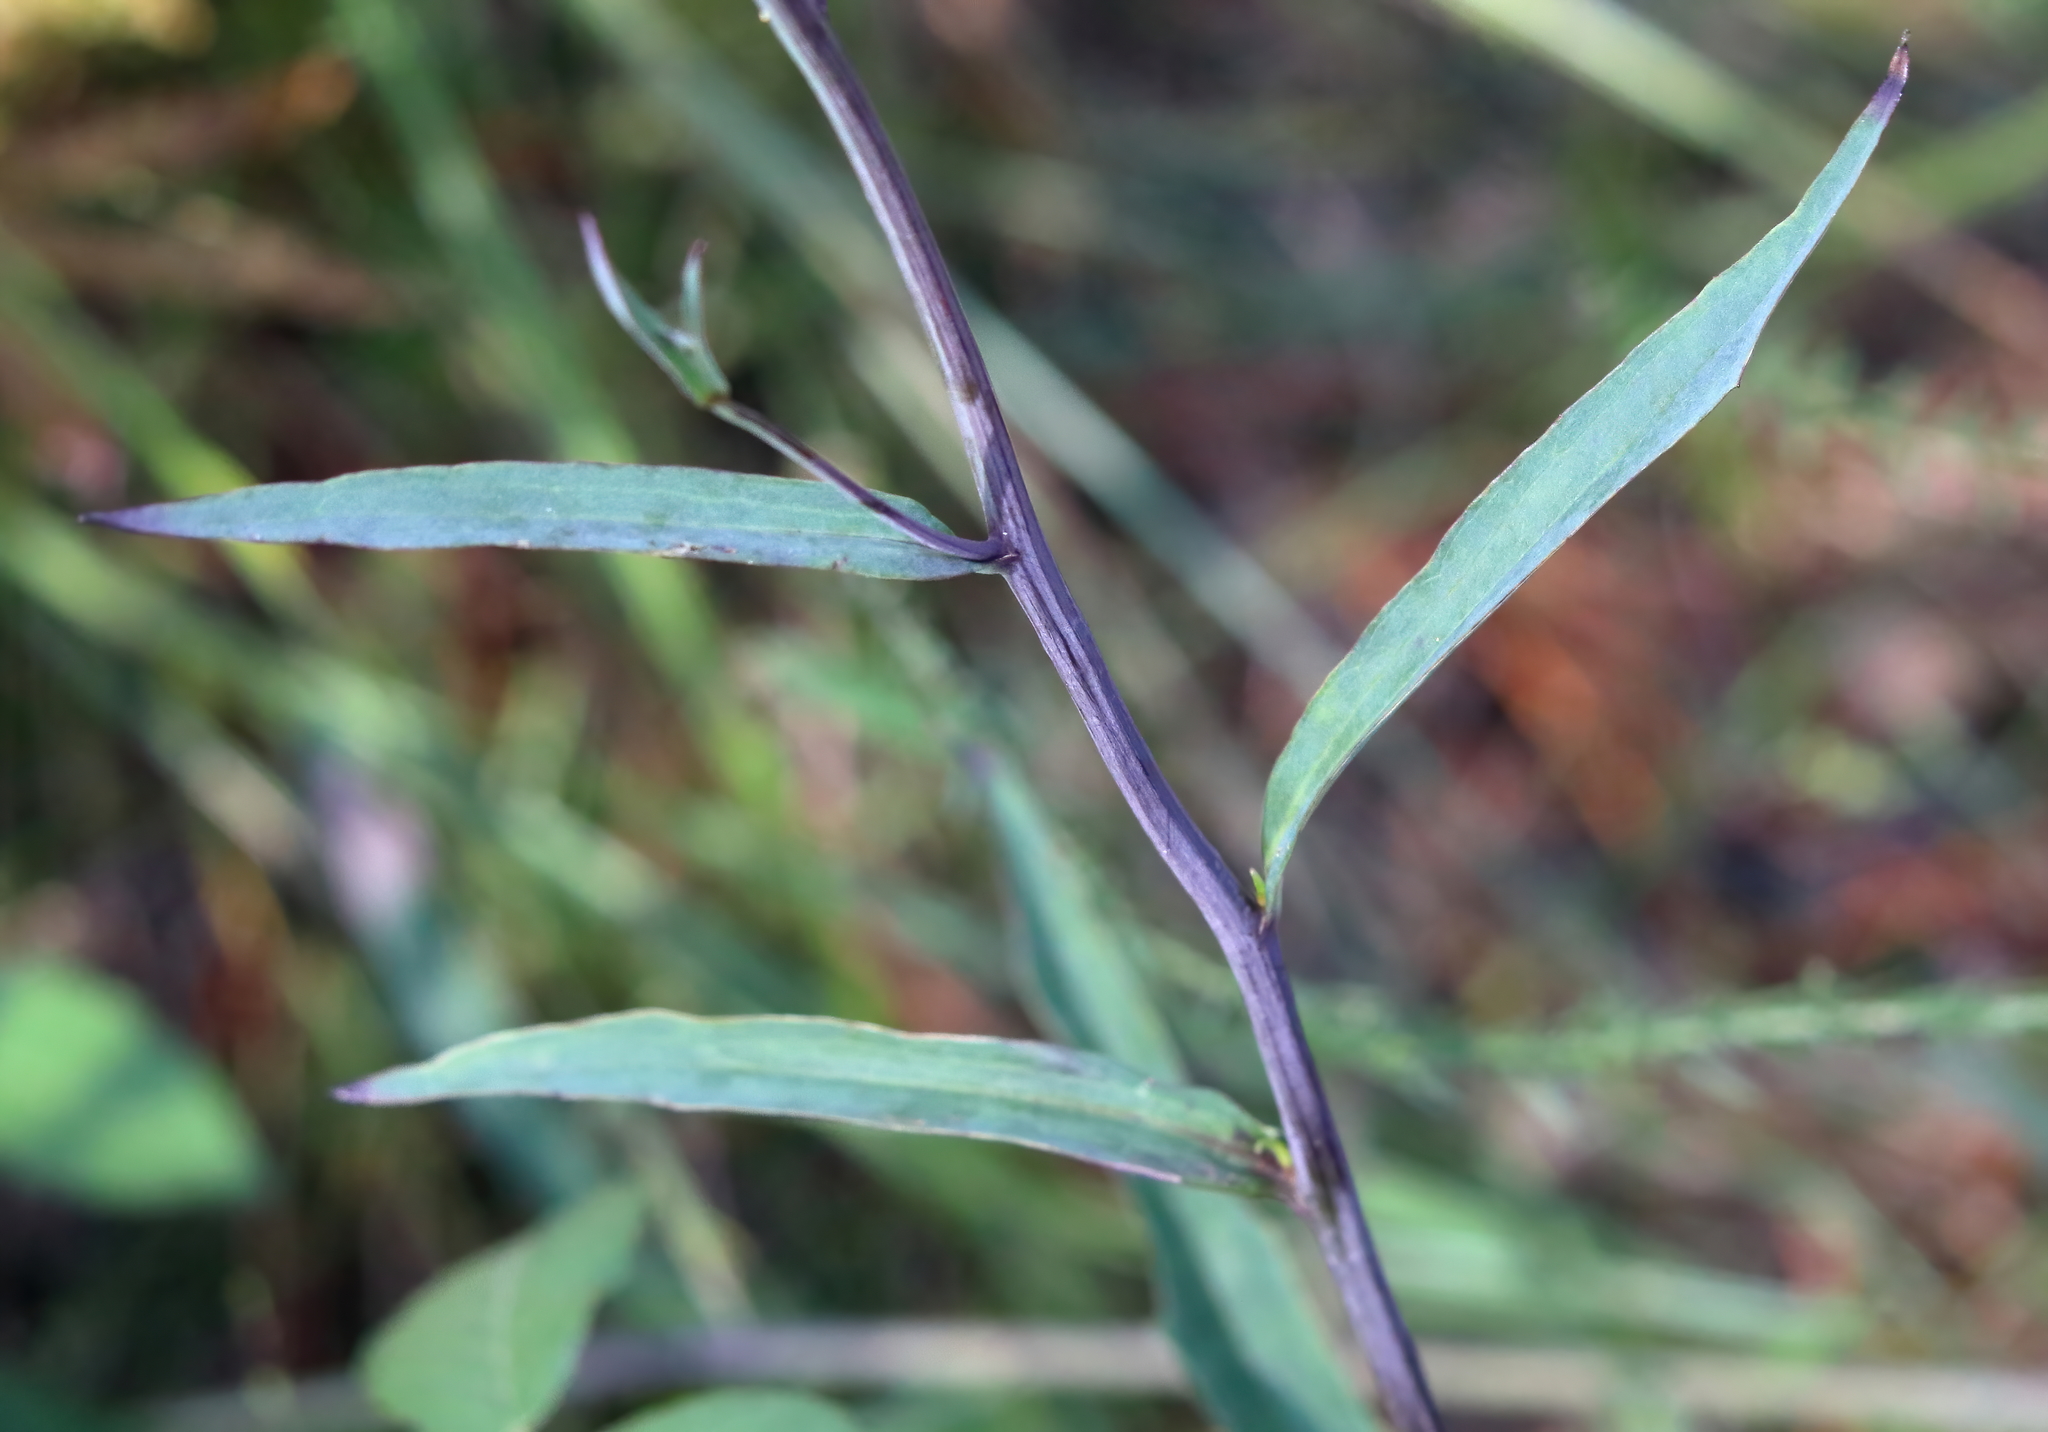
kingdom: Plantae
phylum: Tracheophyta
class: Magnoliopsida
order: Asterales
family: Asteraceae
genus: Arnoglossum
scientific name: Arnoglossum ovatum
